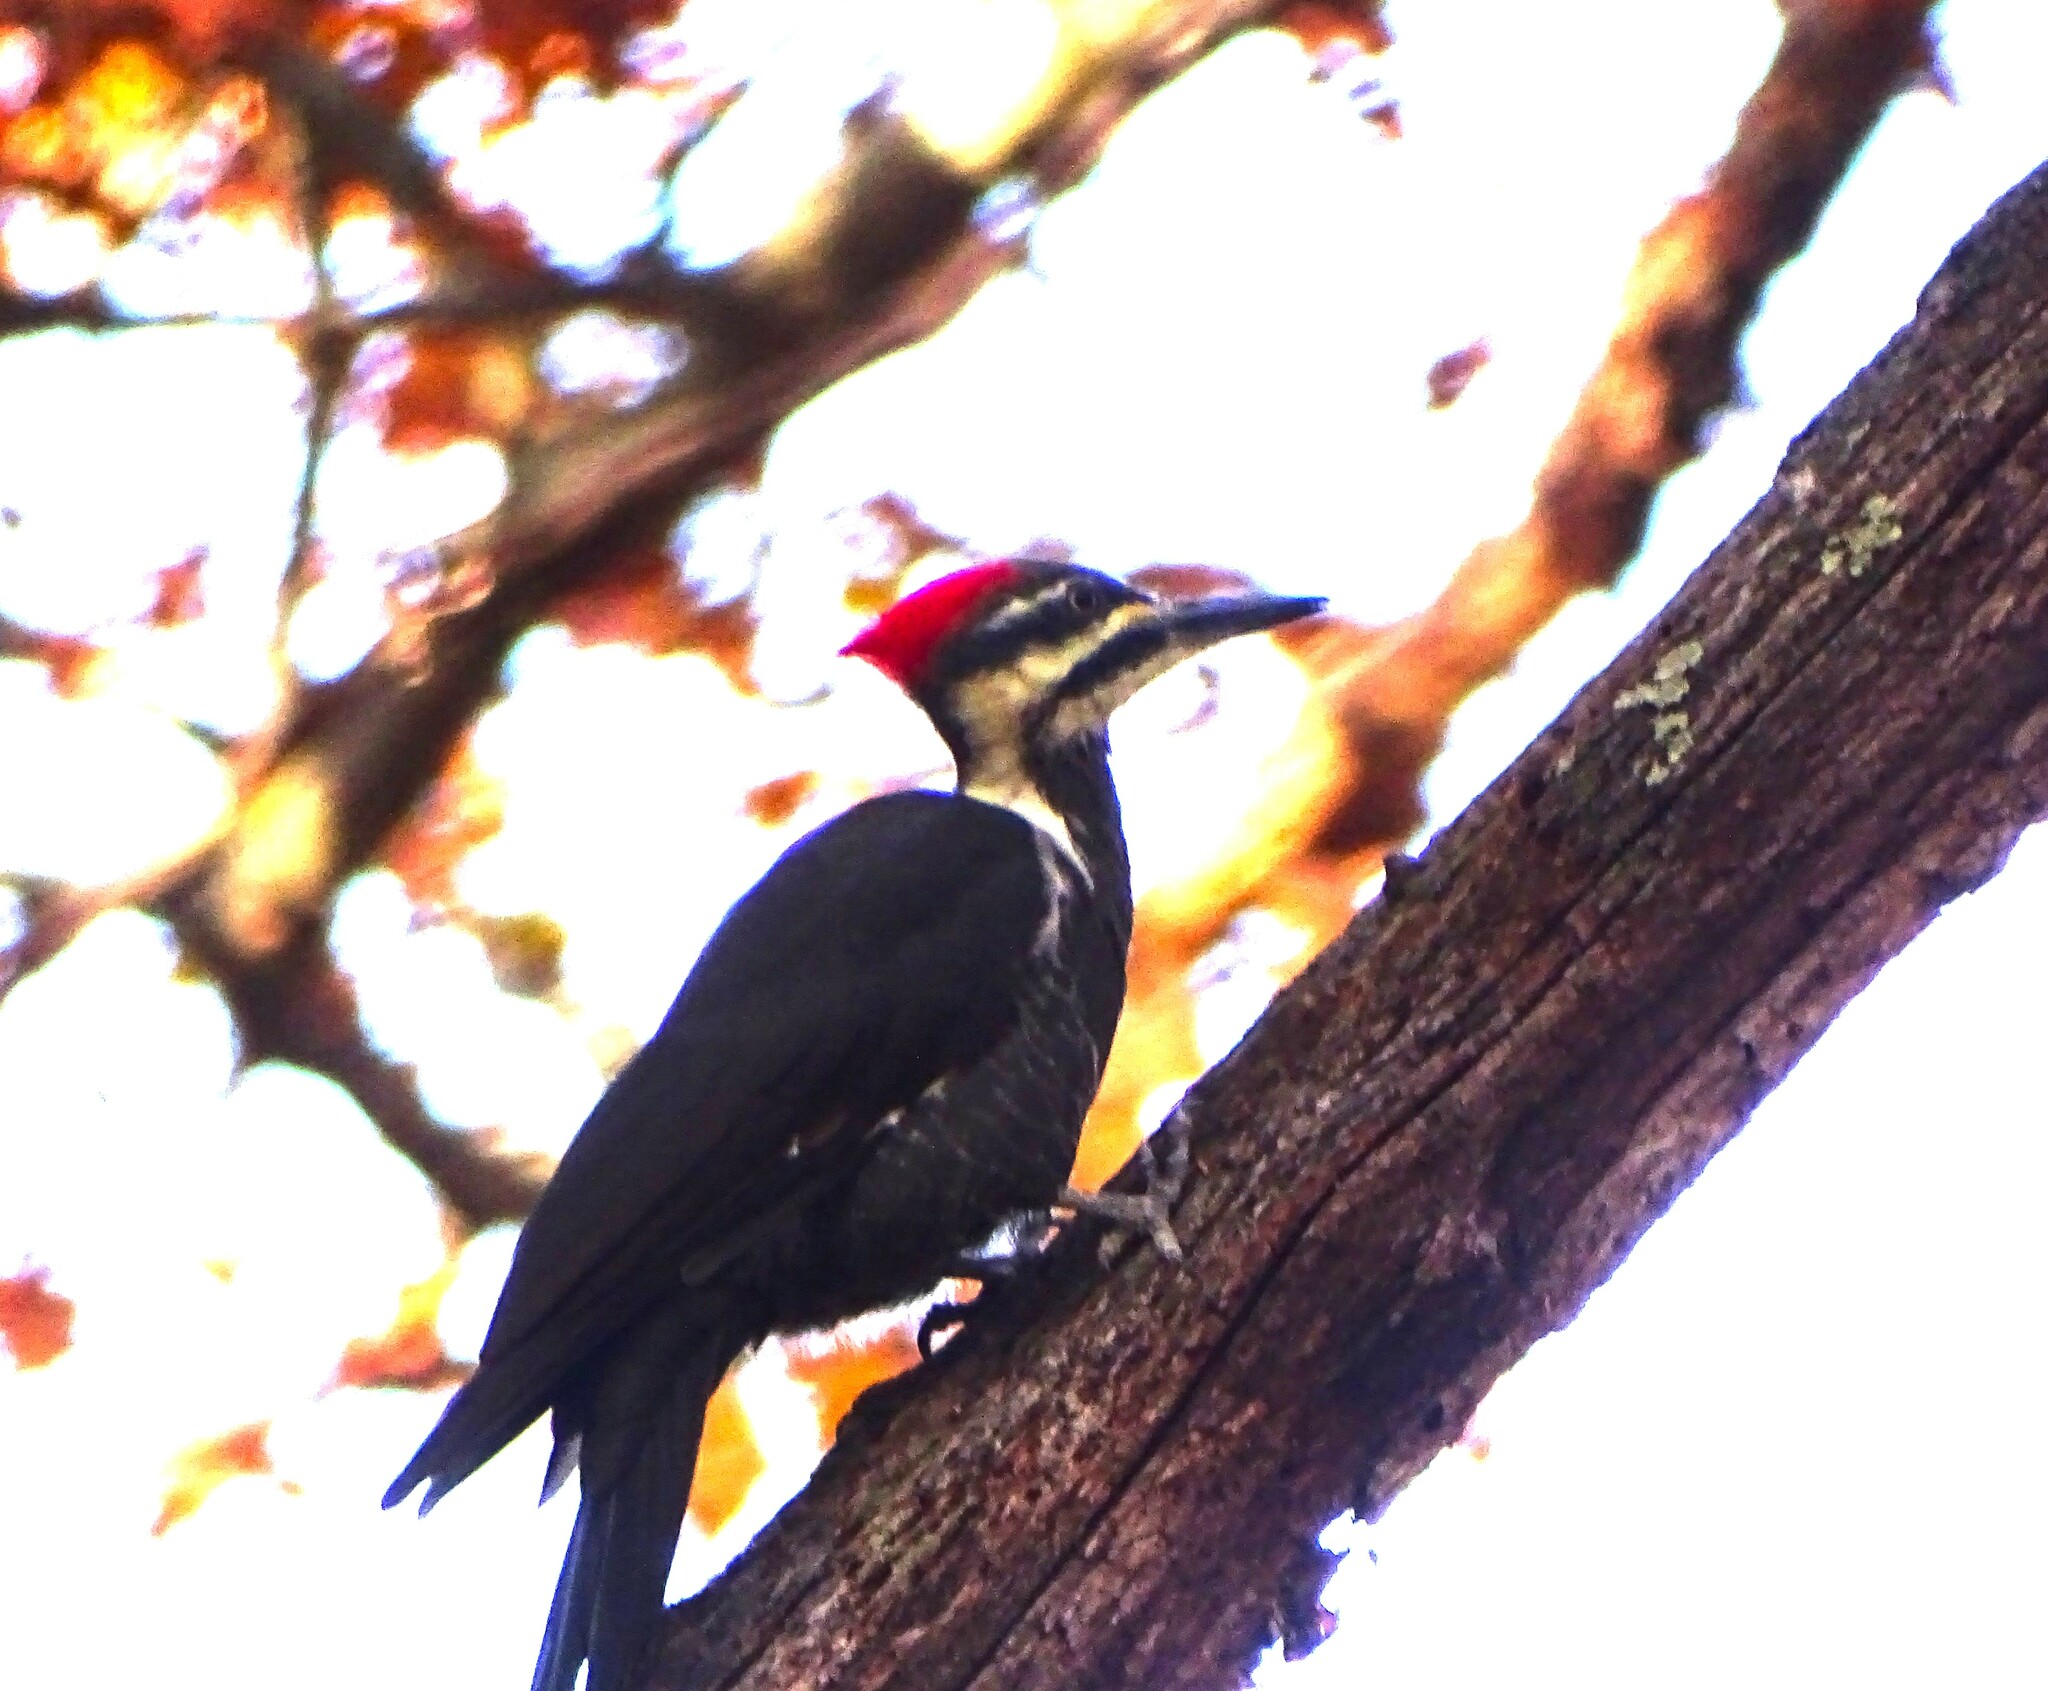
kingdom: Animalia
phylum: Chordata
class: Aves
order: Piciformes
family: Picidae
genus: Dryocopus
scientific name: Dryocopus pileatus
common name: Pileated woodpecker
